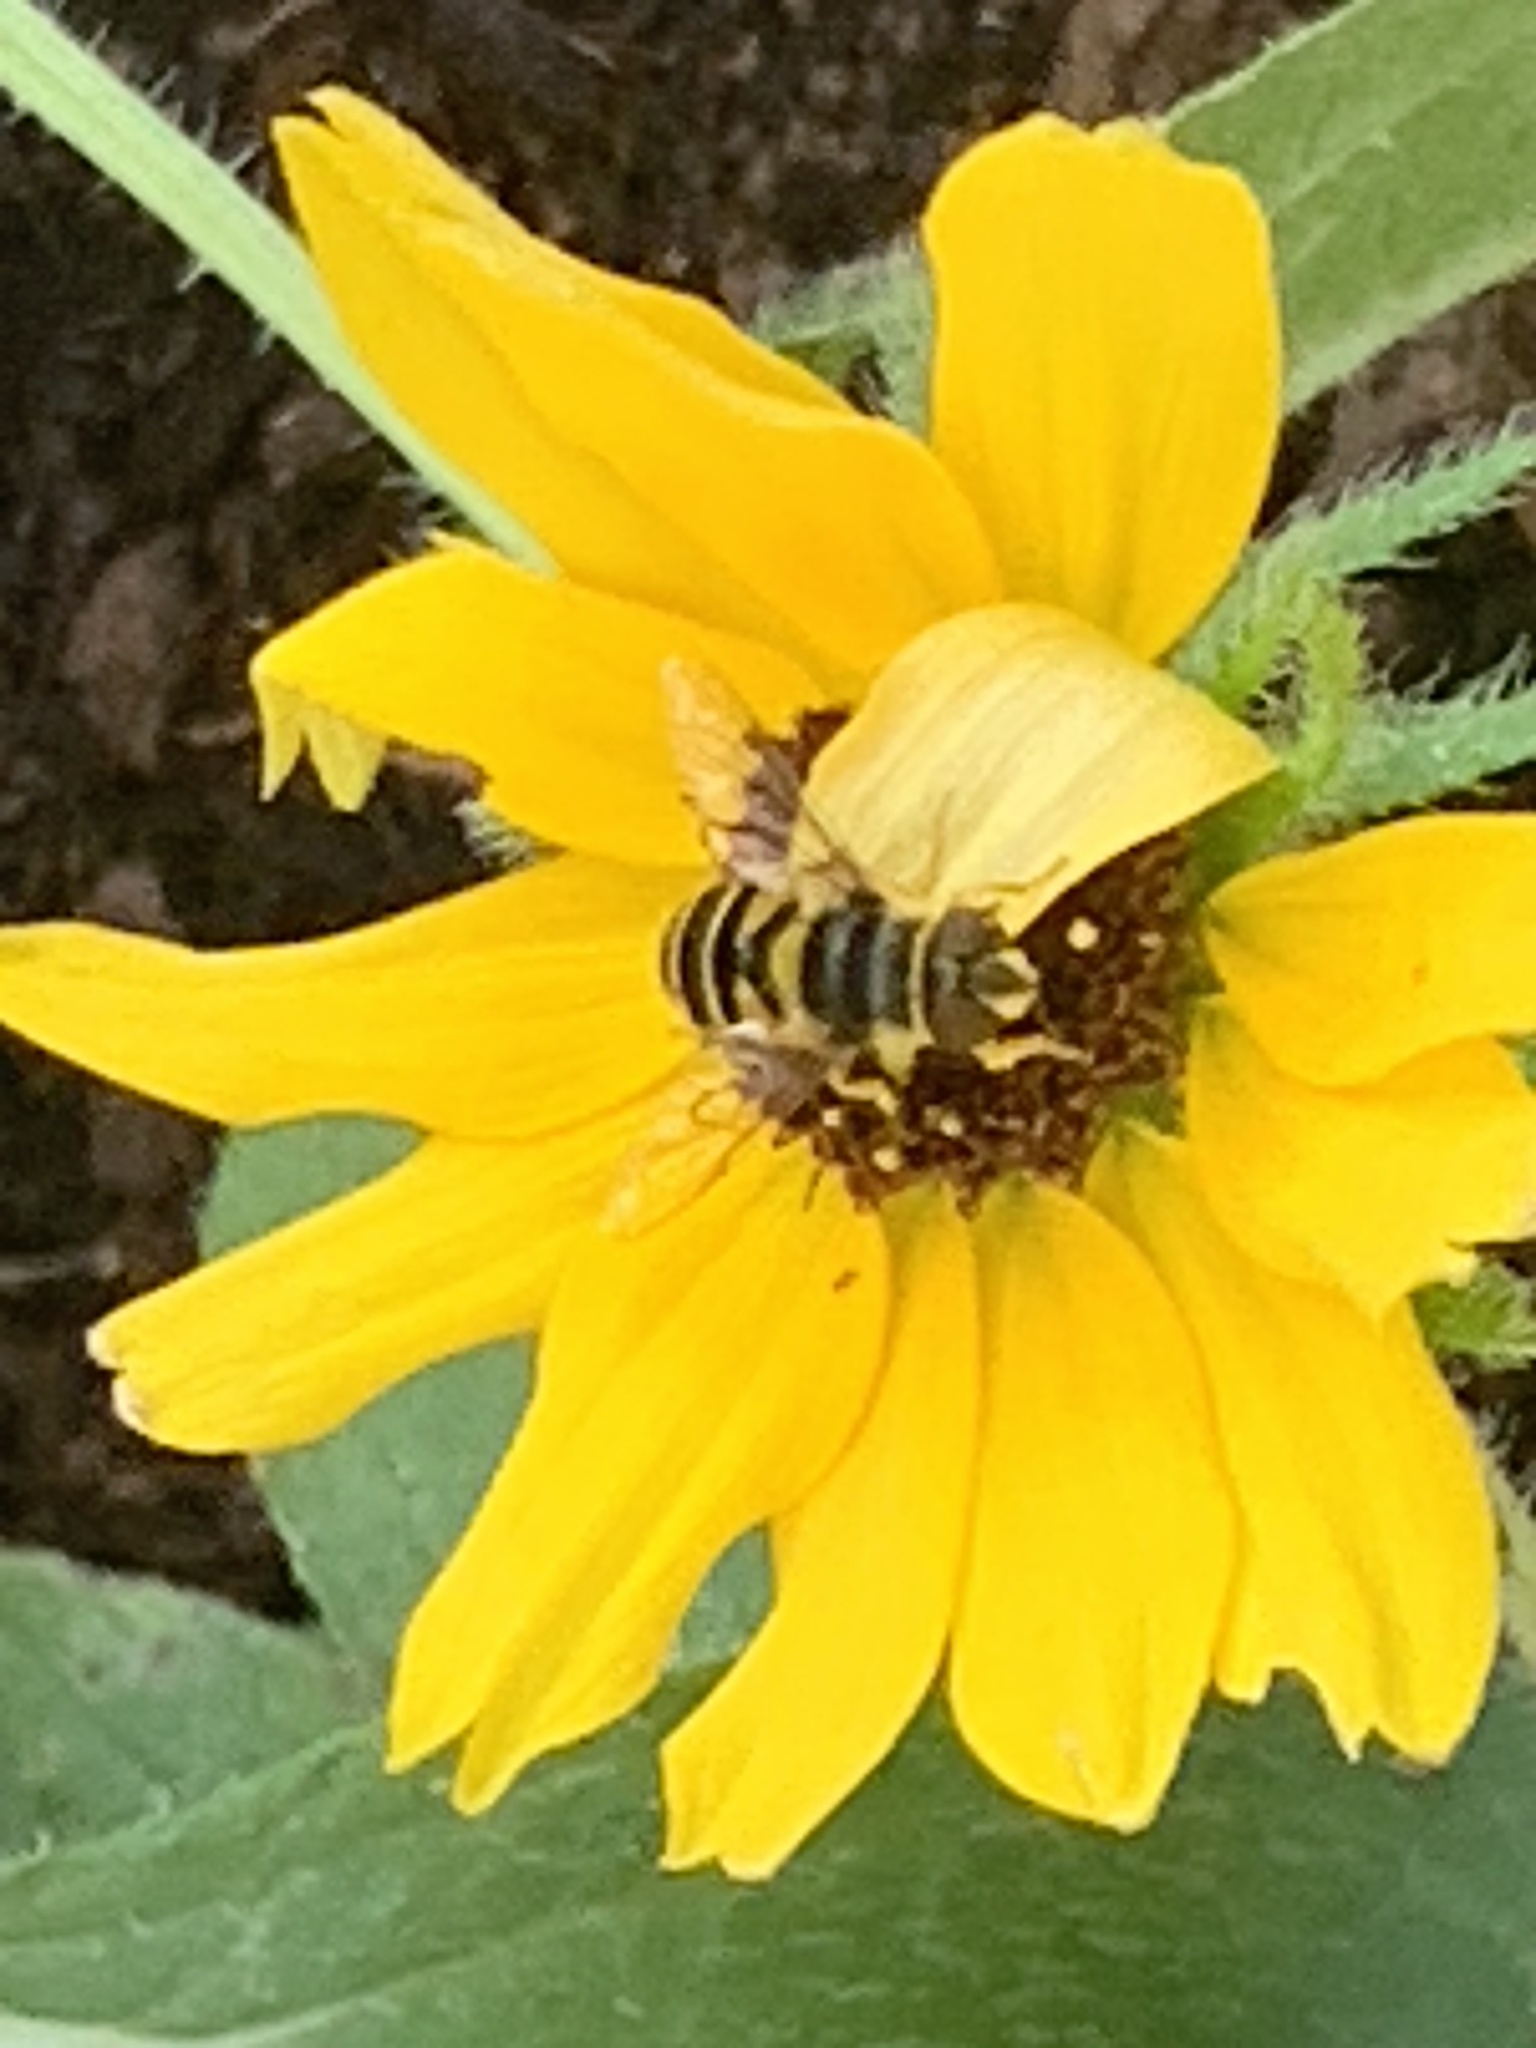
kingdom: Animalia
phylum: Arthropoda
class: Insecta
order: Diptera
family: Syrphidae
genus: Eristalis
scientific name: Eristalis transversa
